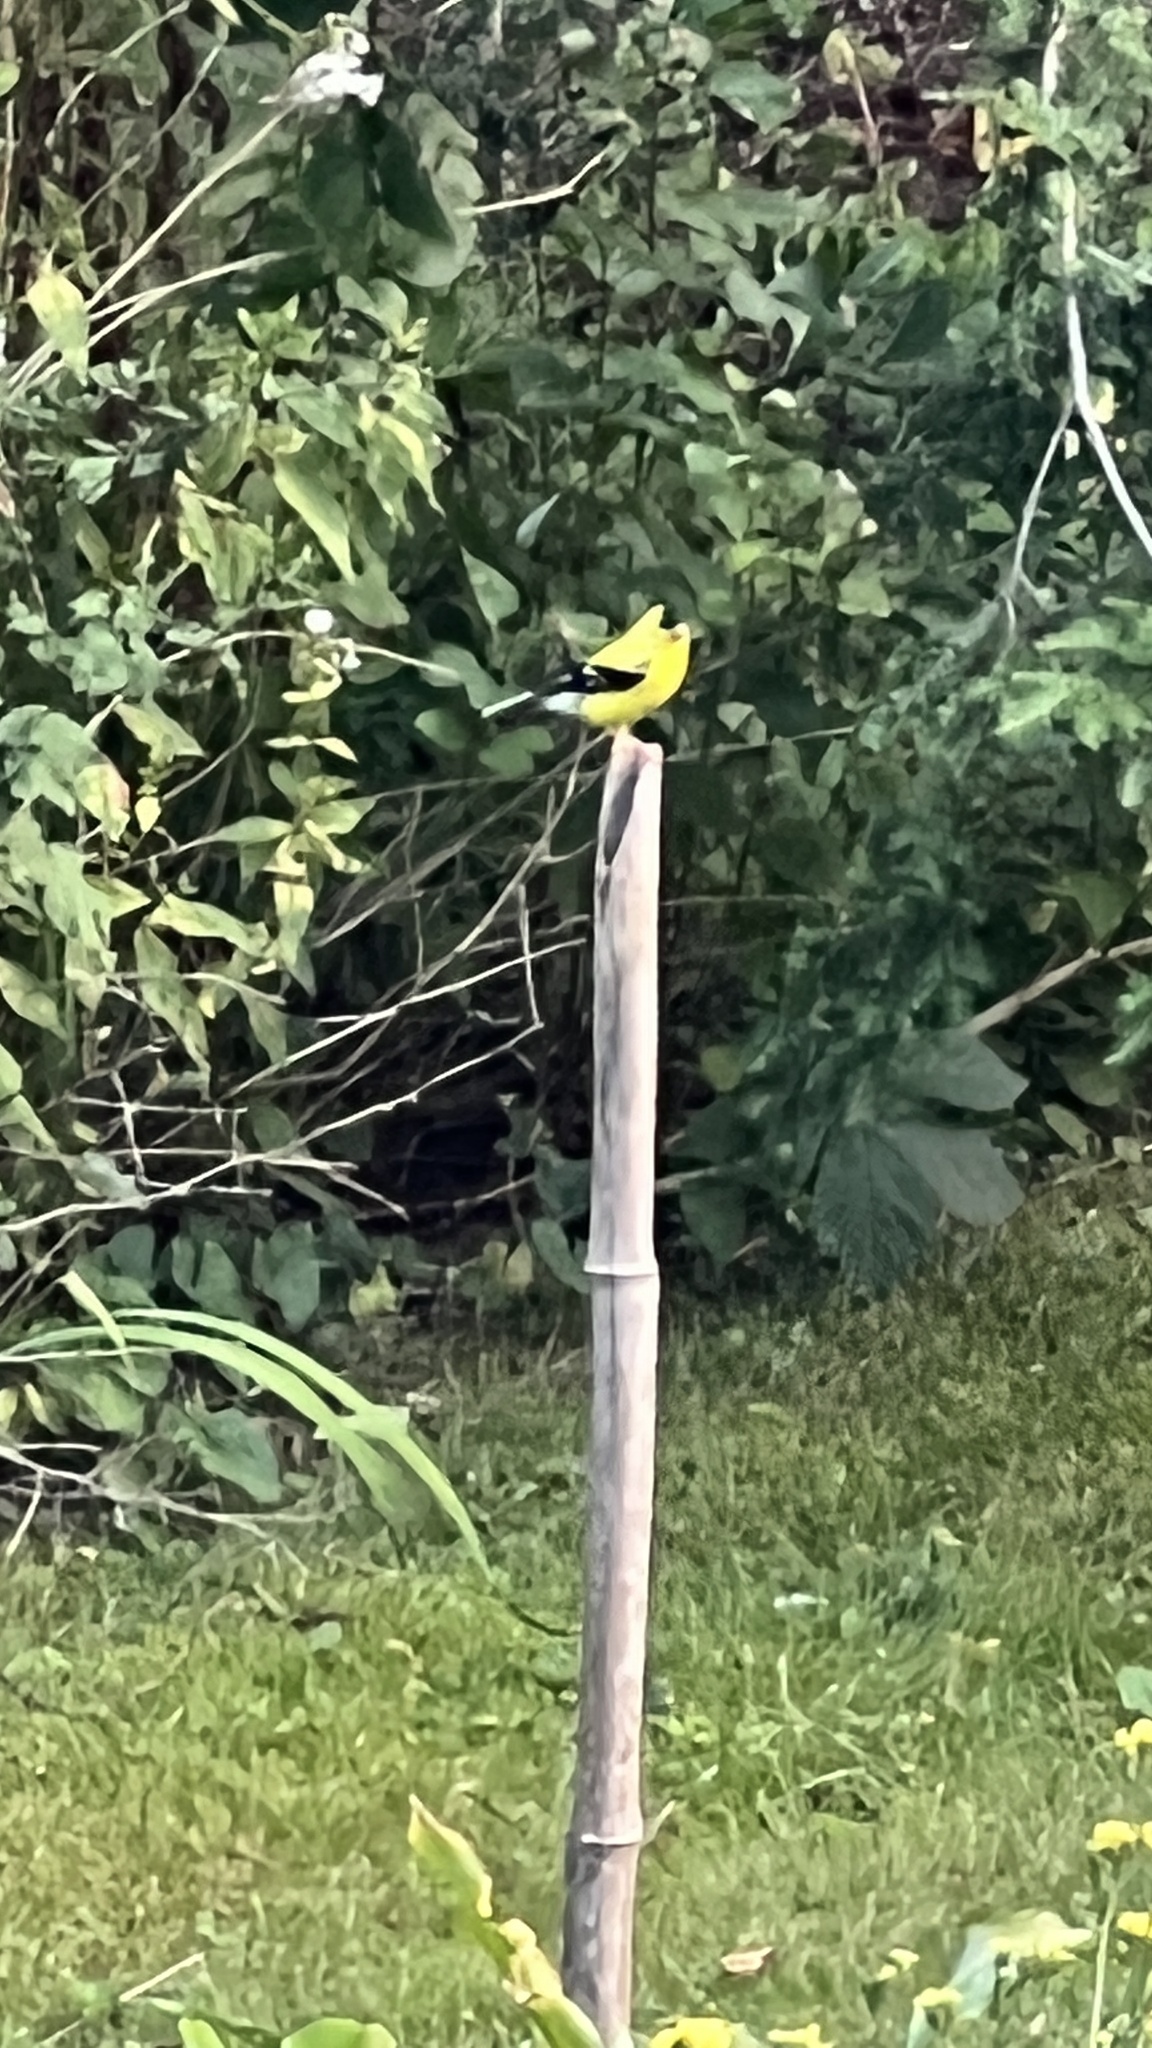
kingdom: Animalia
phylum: Chordata
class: Aves
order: Passeriformes
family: Fringillidae
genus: Spinus
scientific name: Spinus tristis
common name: American goldfinch
